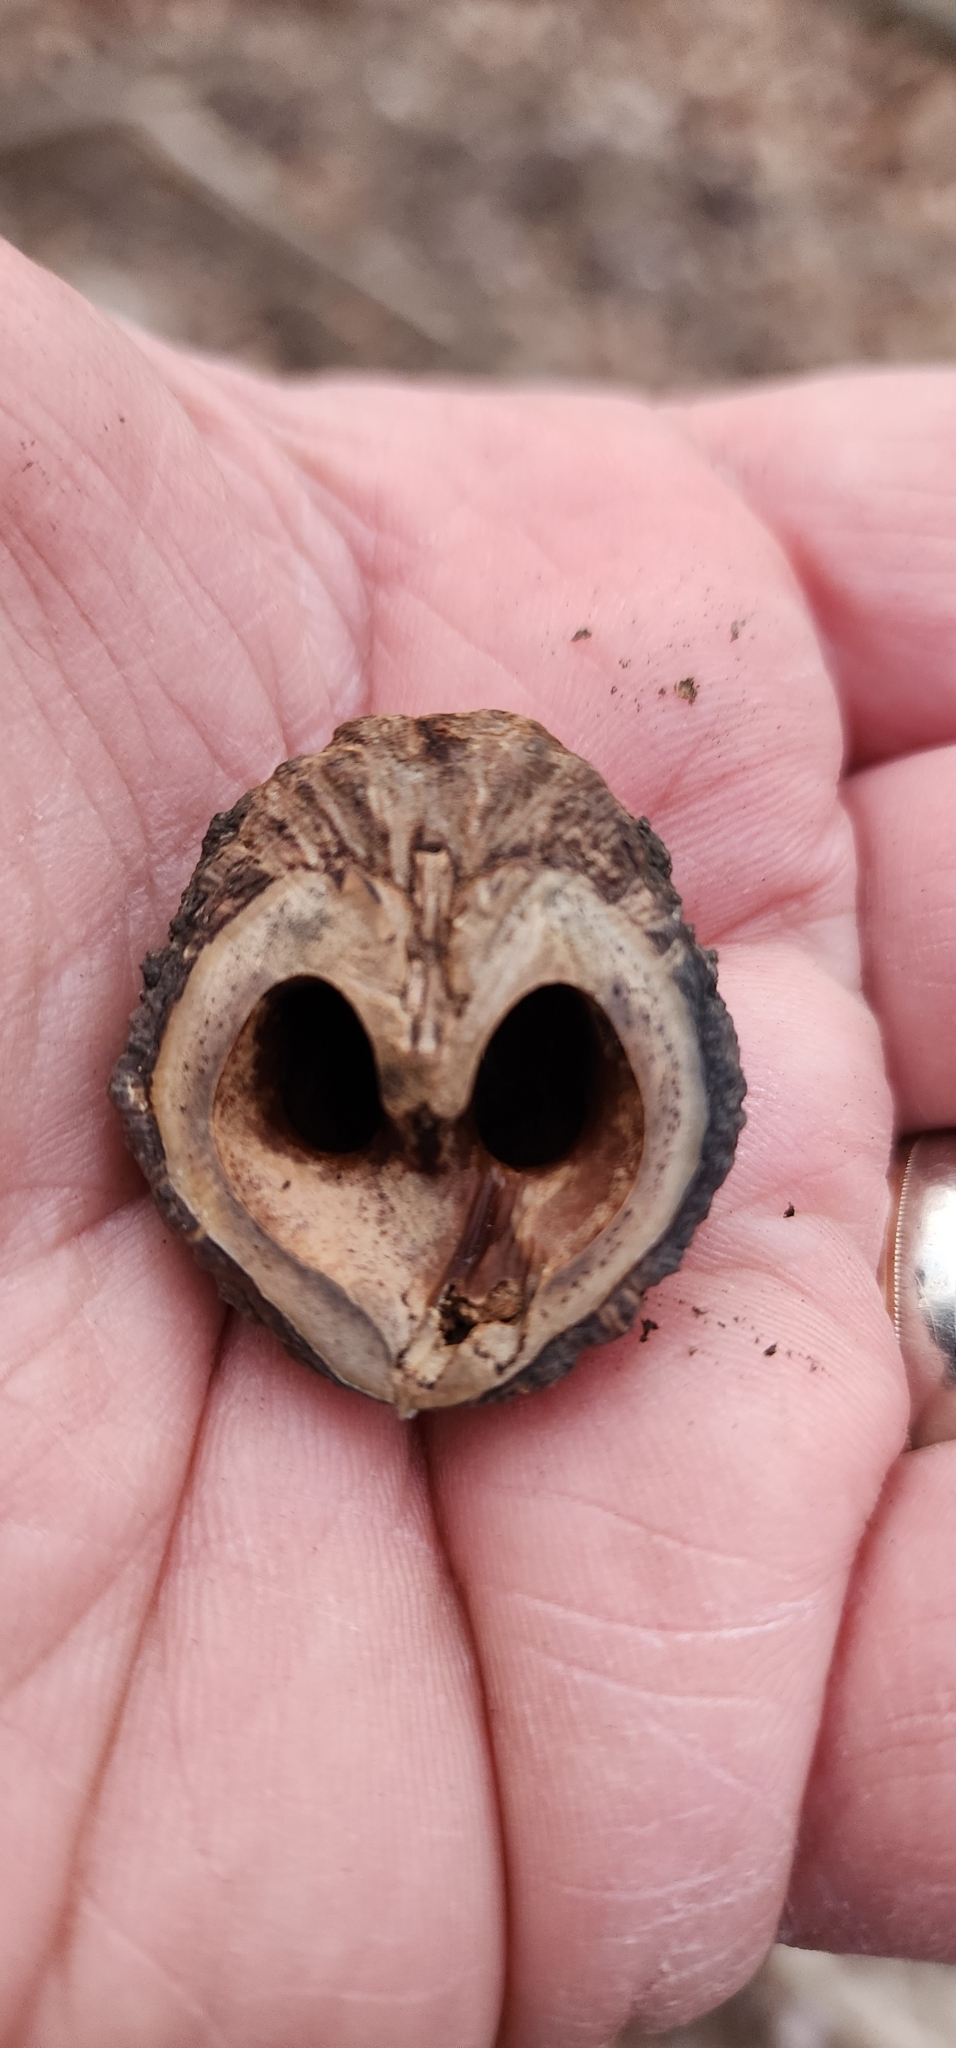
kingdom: Plantae
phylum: Tracheophyta
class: Magnoliopsida
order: Fagales
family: Juglandaceae
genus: Juglans
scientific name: Juglans nigra
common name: Black walnut
